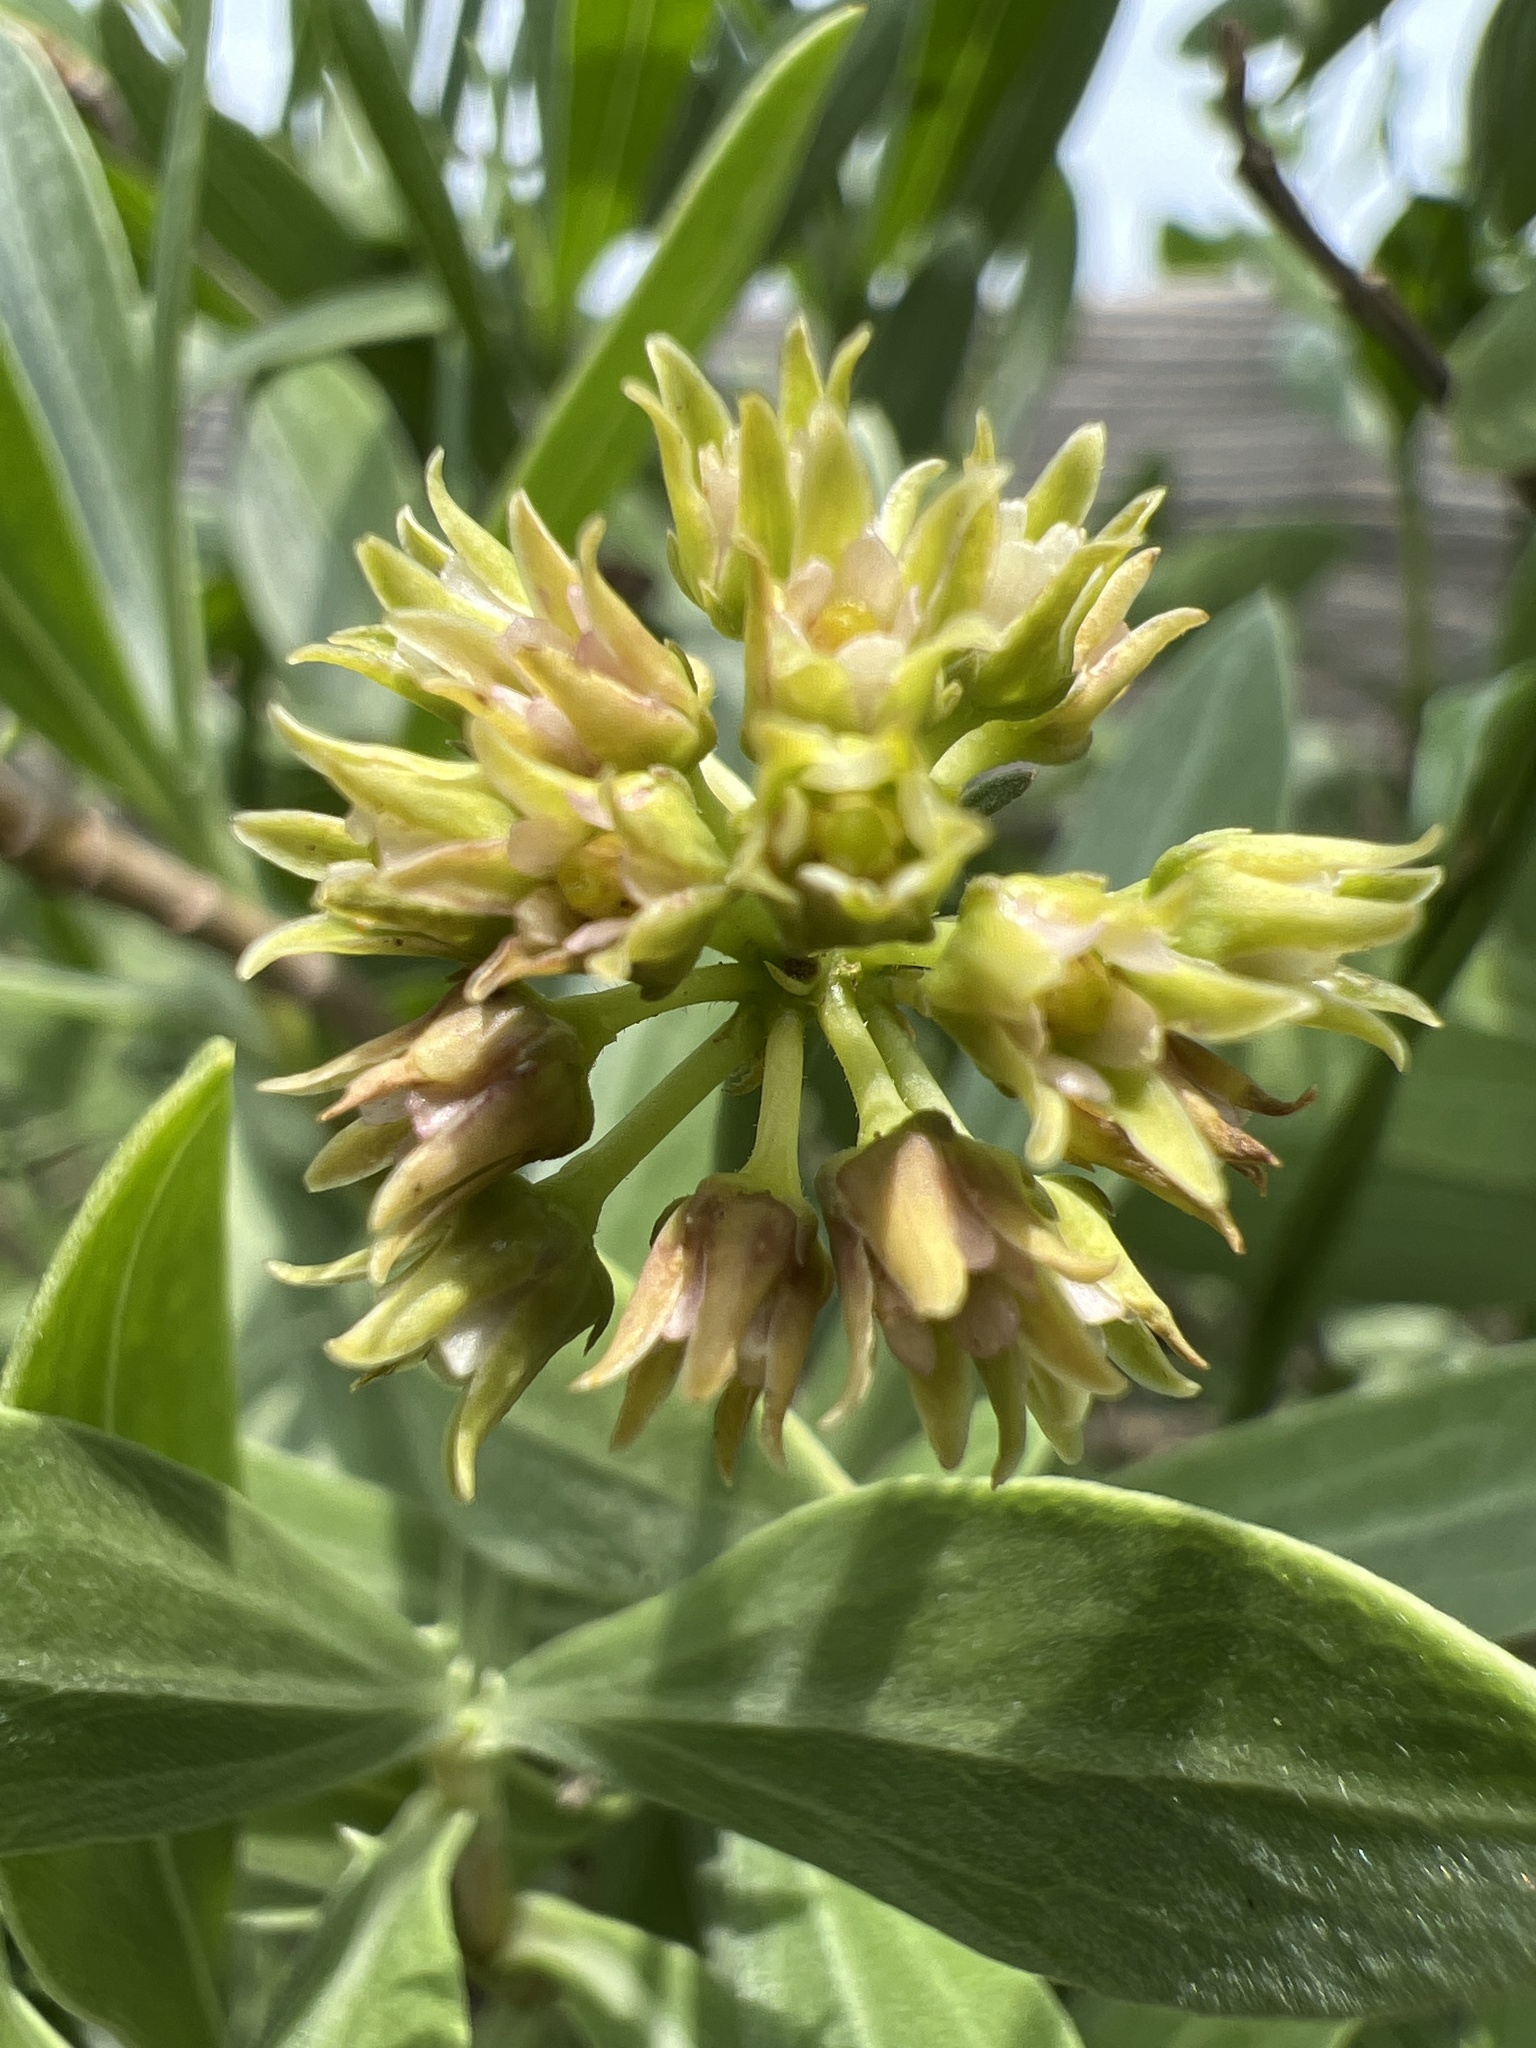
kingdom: Plantae
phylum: Tracheophyta
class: Magnoliopsida
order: Gentianales
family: Apocynaceae
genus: Pattalias
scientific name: Pattalias
